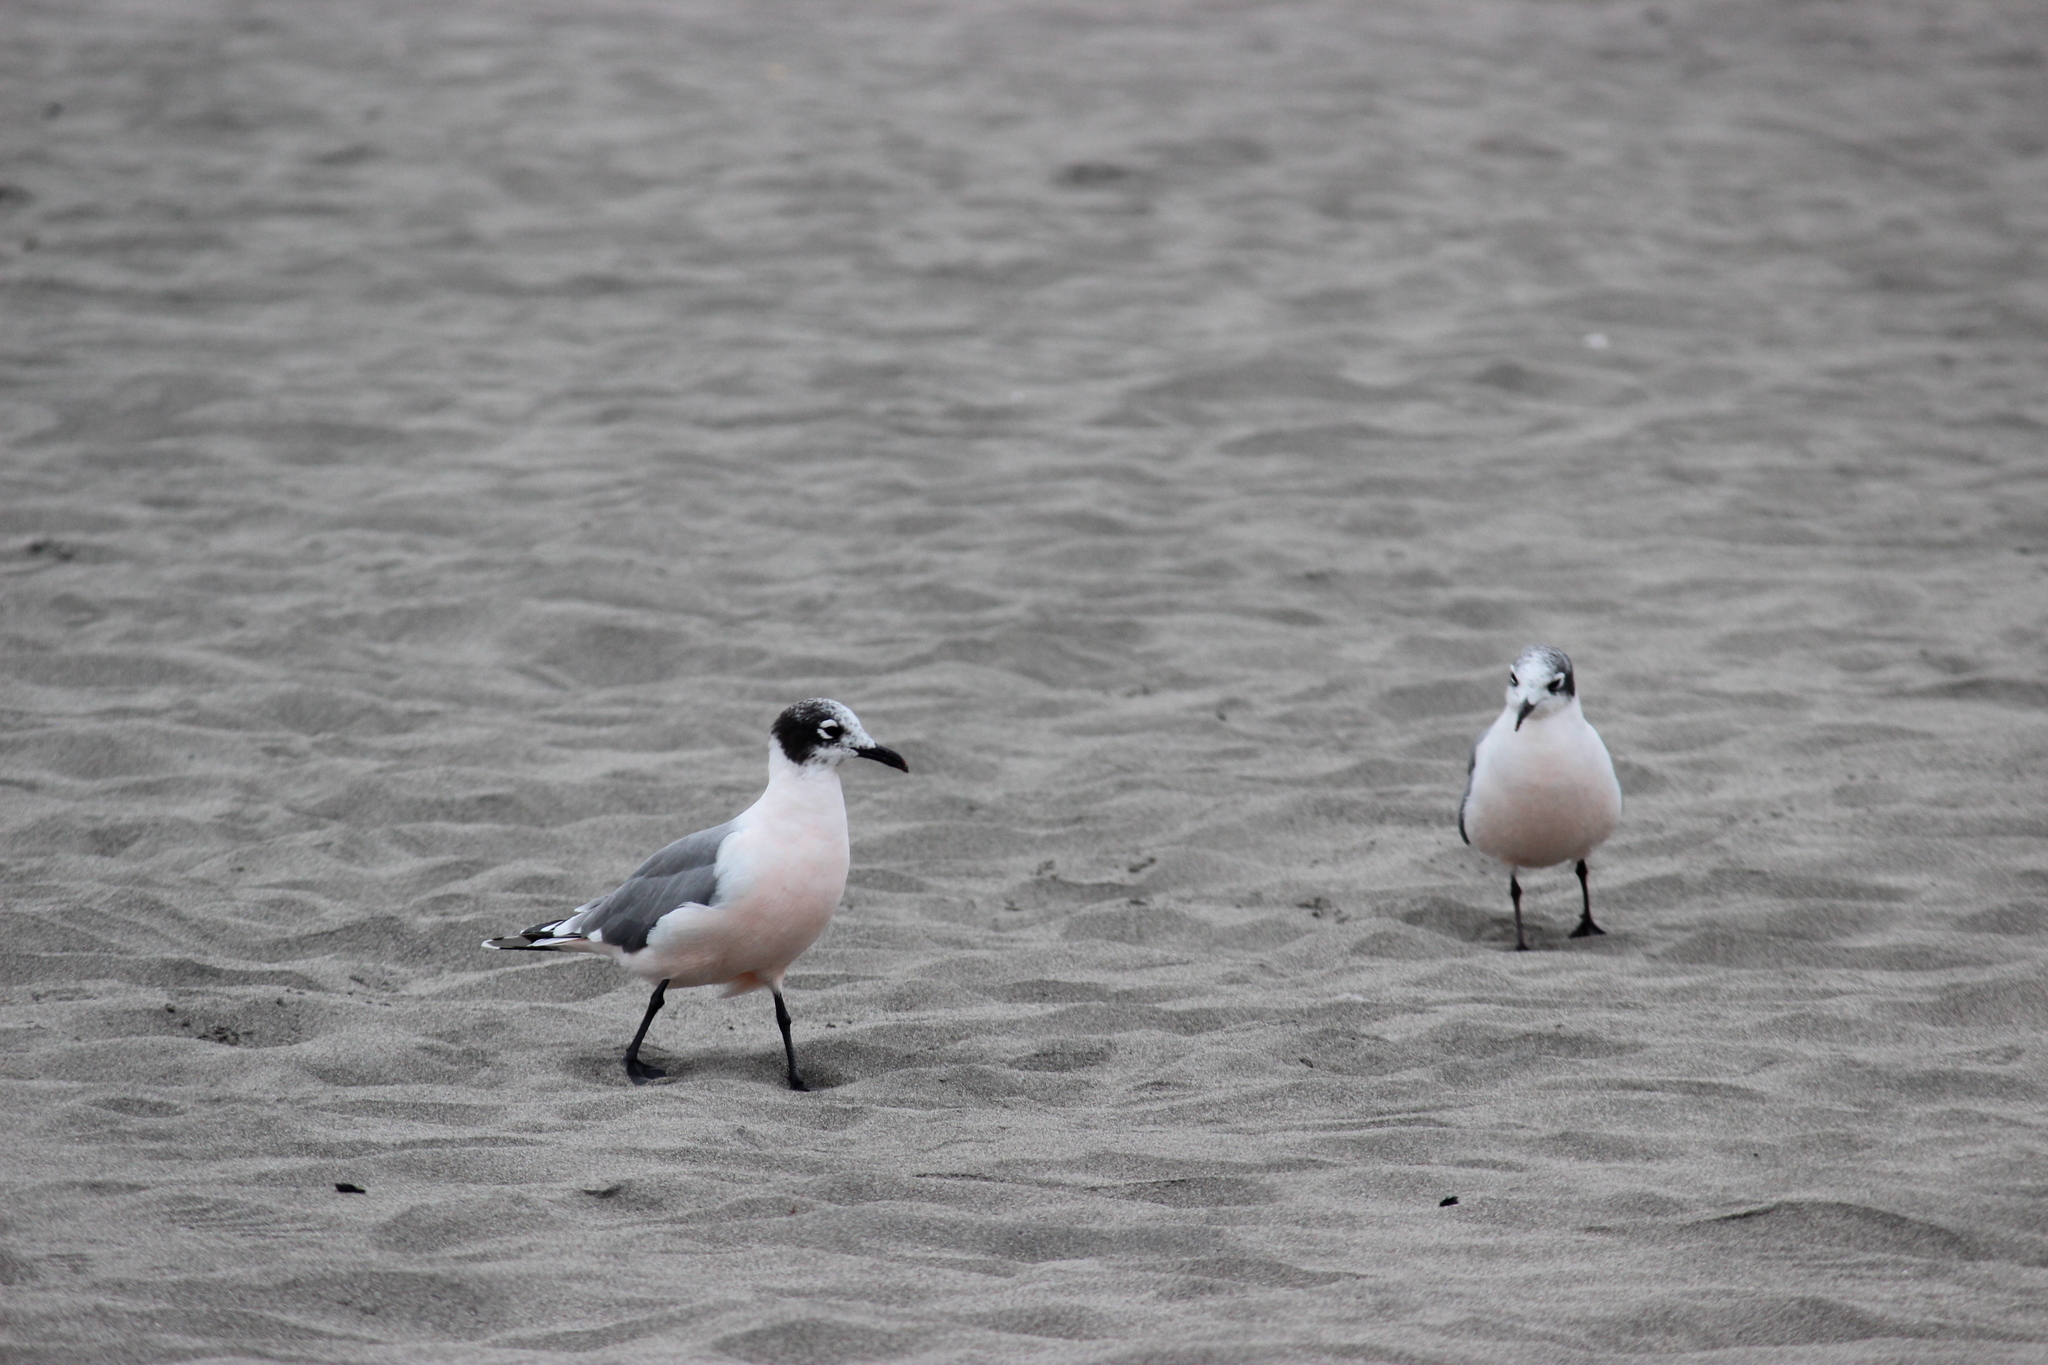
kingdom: Animalia
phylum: Chordata
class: Aves
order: Charadriiformes
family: Laridae
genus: Leucophaeus
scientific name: Leucophaeus pipixcan
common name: Franklin's gull
